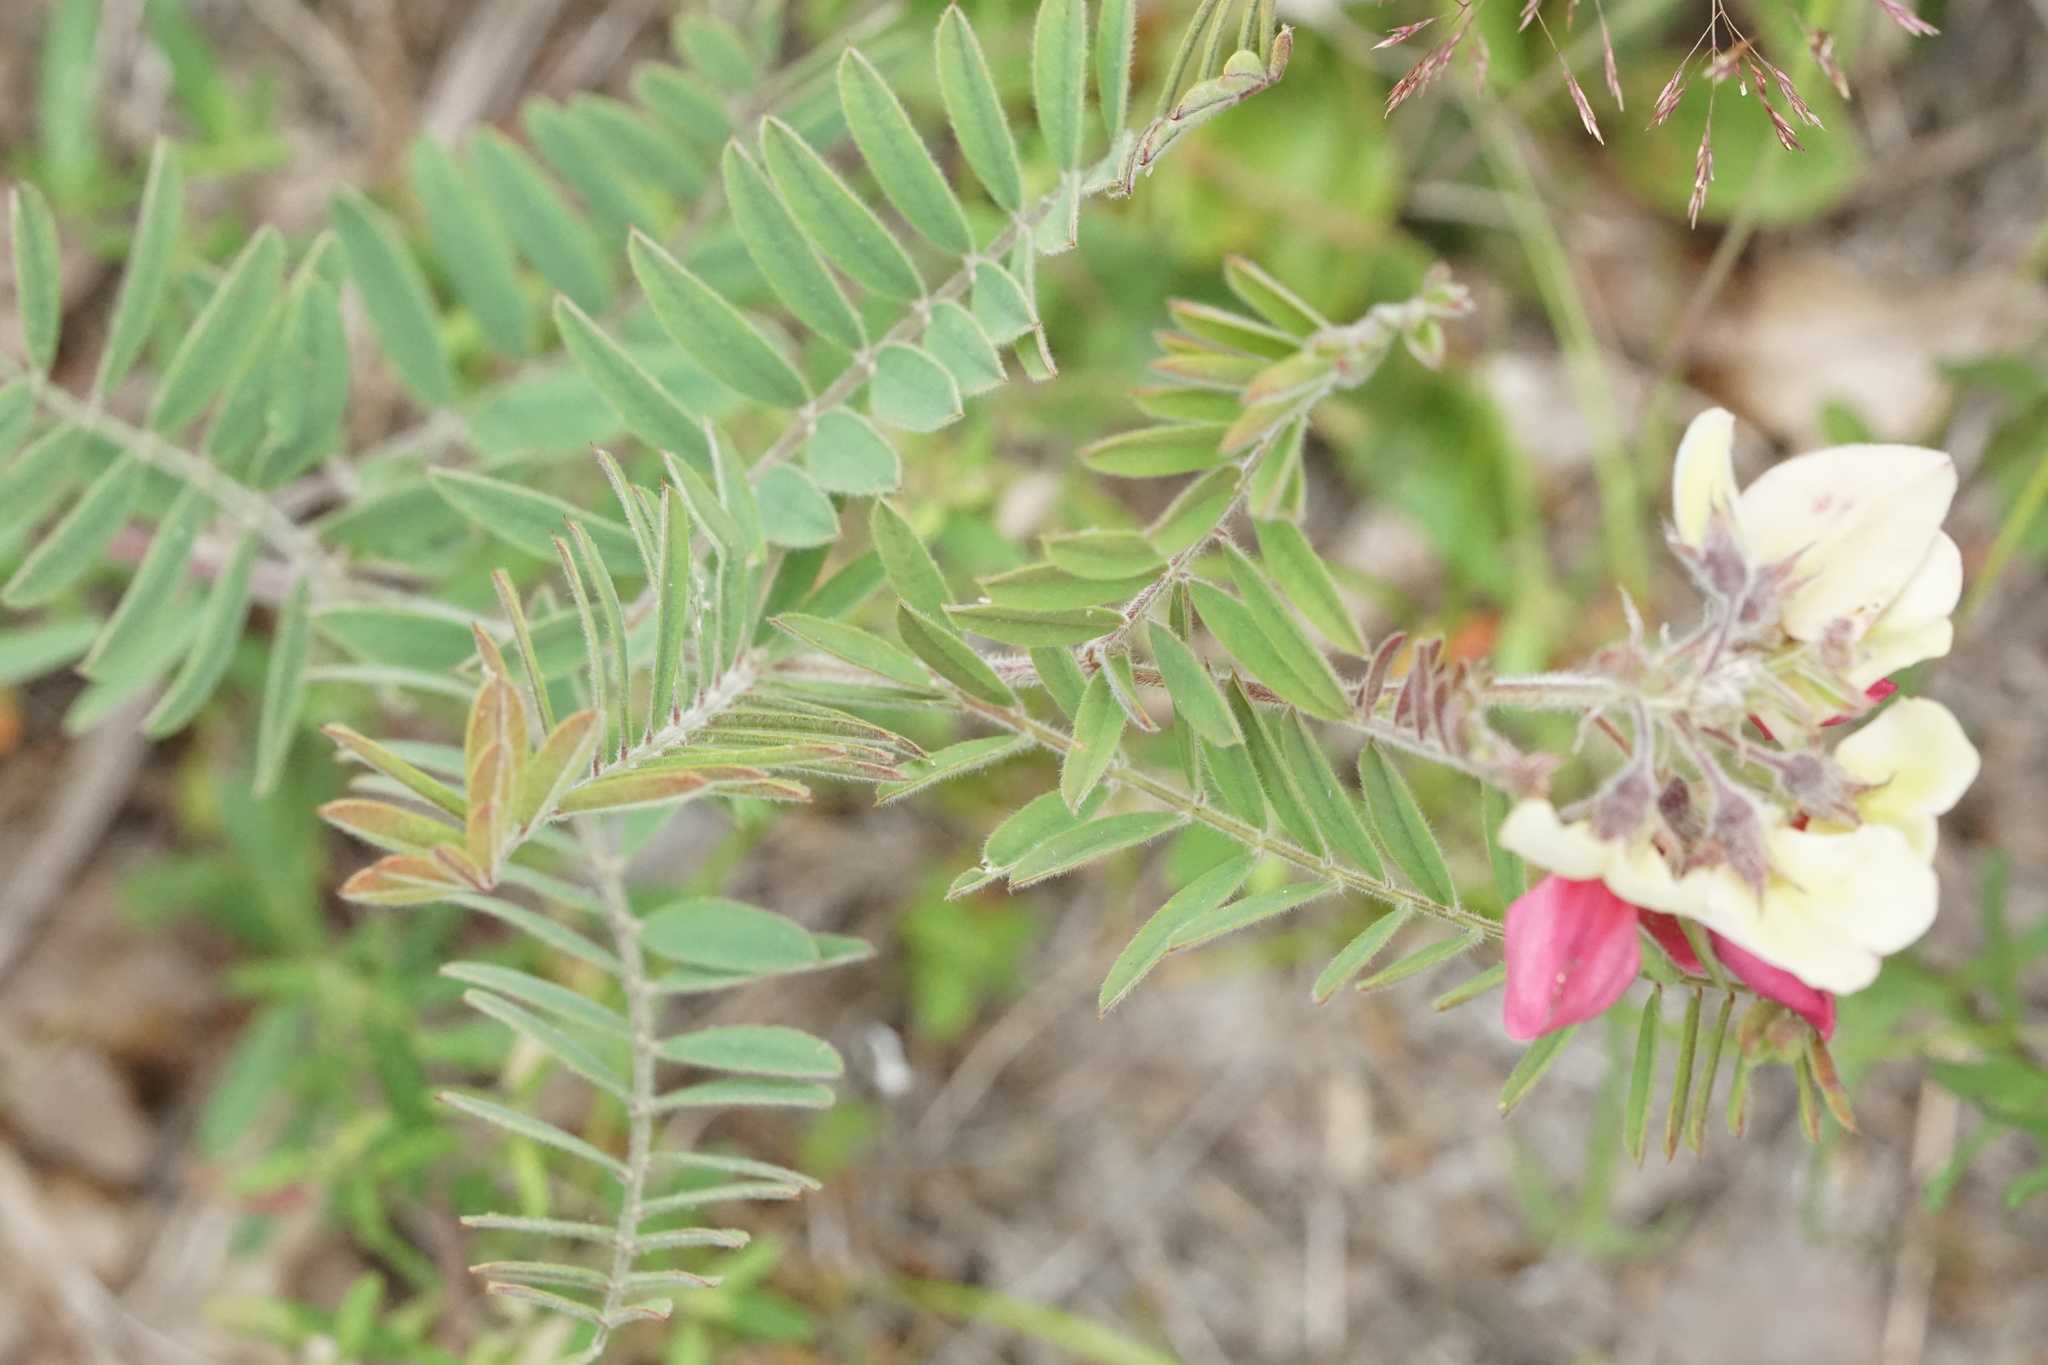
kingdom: Plantae
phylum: Tracheophyta
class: Magnoliopsida
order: Fabales
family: Fabaceae
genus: Tephrosia
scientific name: Tephrosia virginiana
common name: Rabbit-pea
